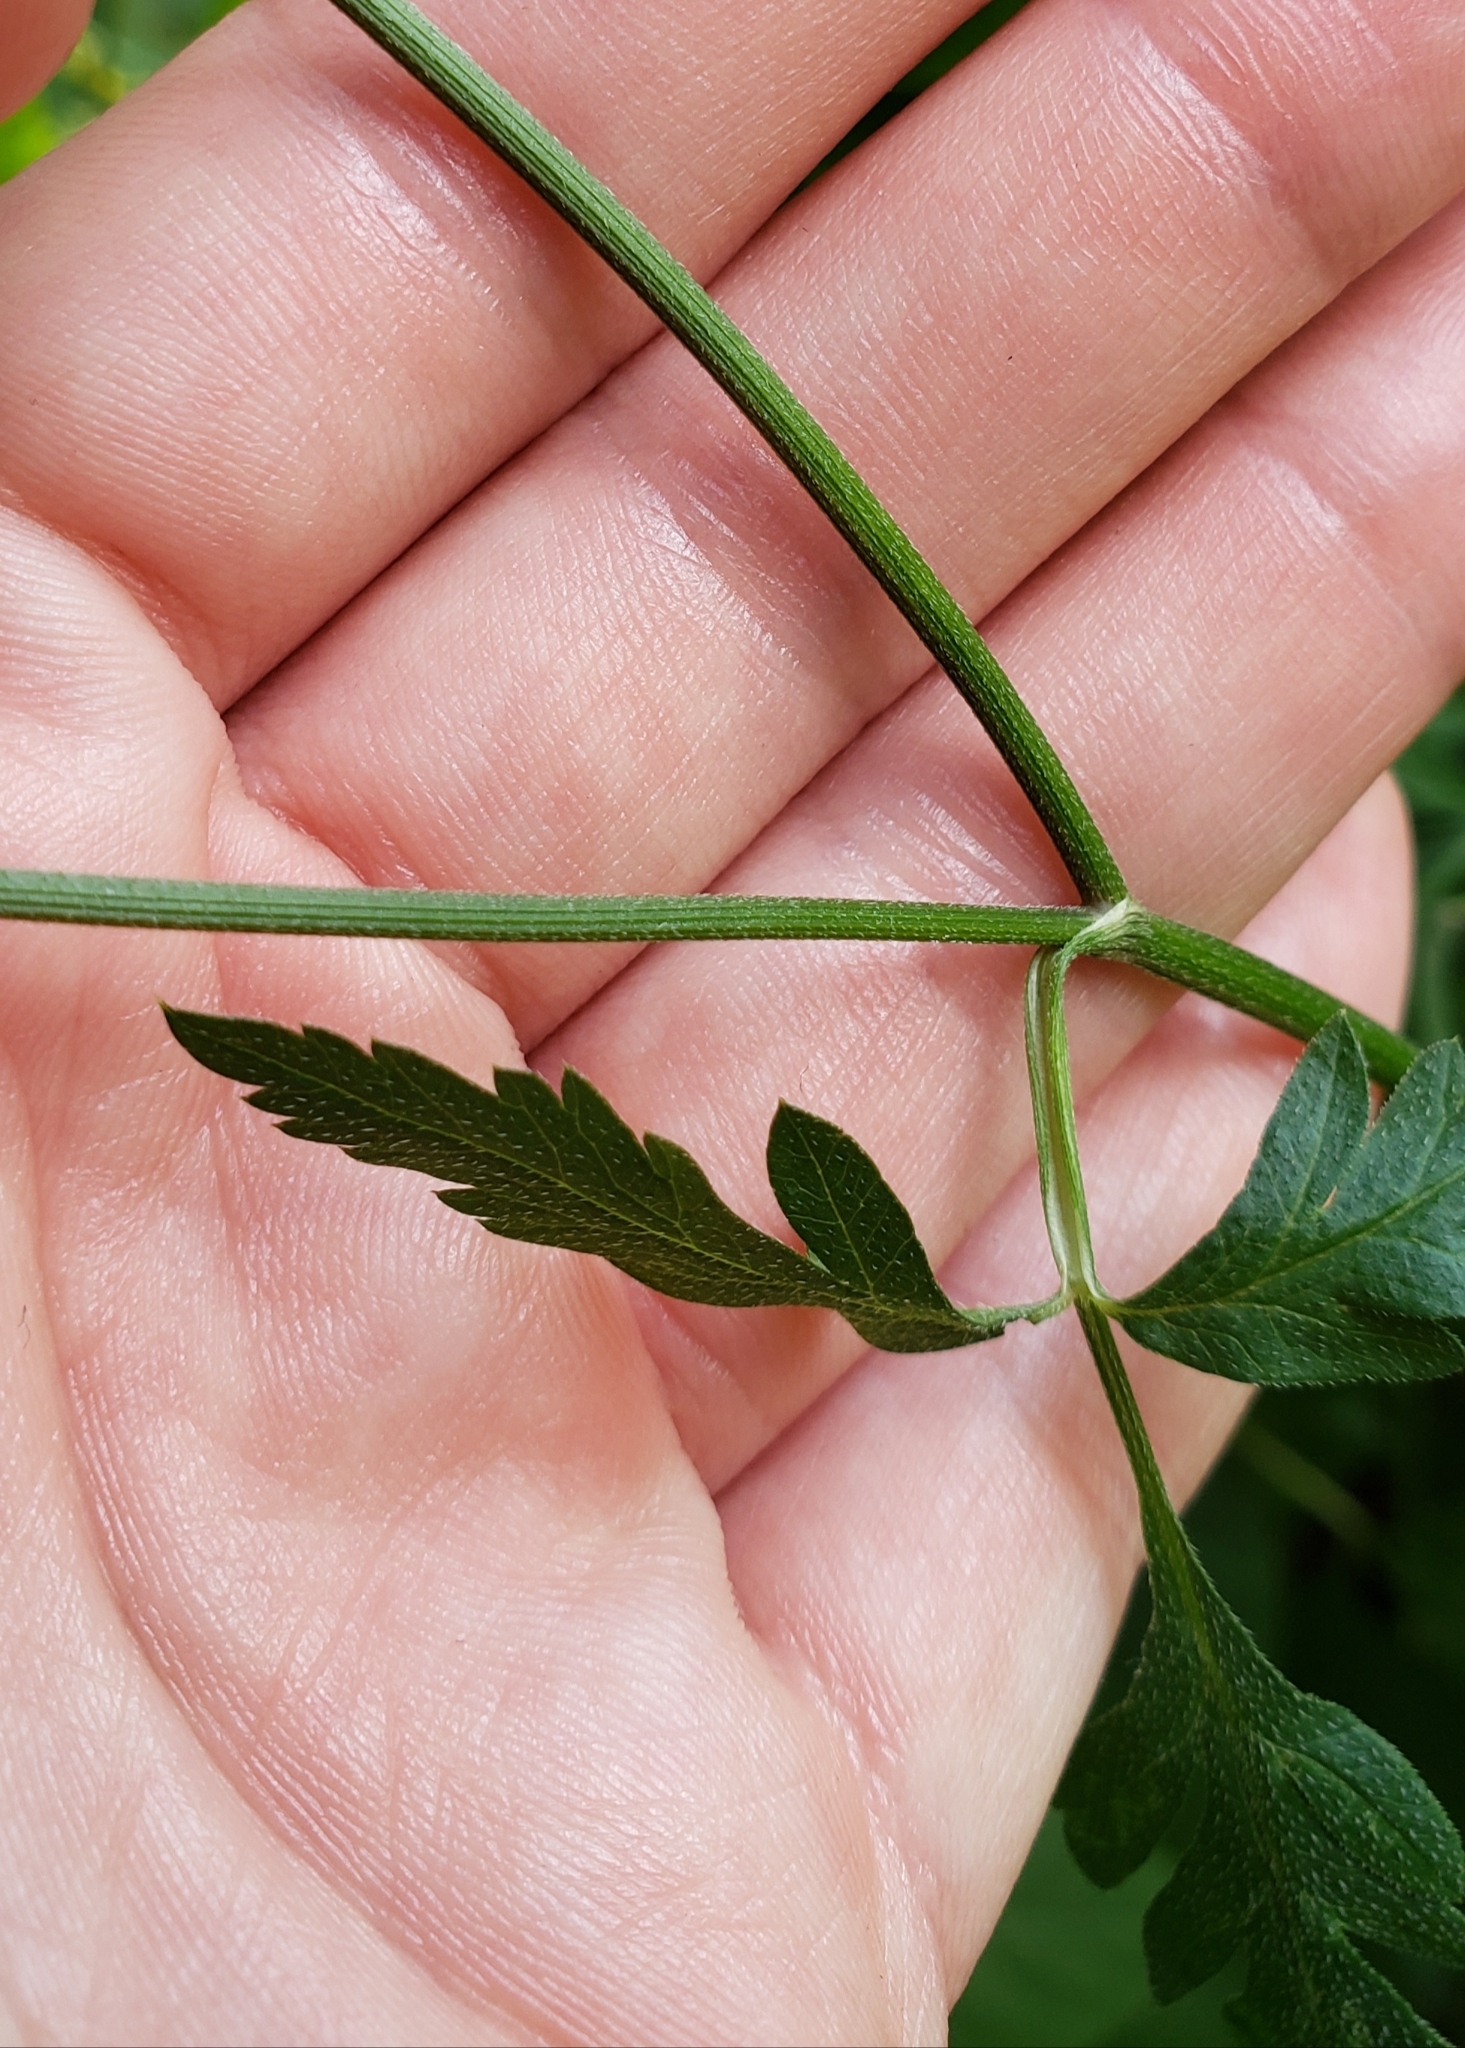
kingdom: Plantae
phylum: Tracheophyta
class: Magnoliopsida
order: Apiales
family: Apiaceae
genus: Torilis
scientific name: Torilis japonica
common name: Upright hedge-parsley
